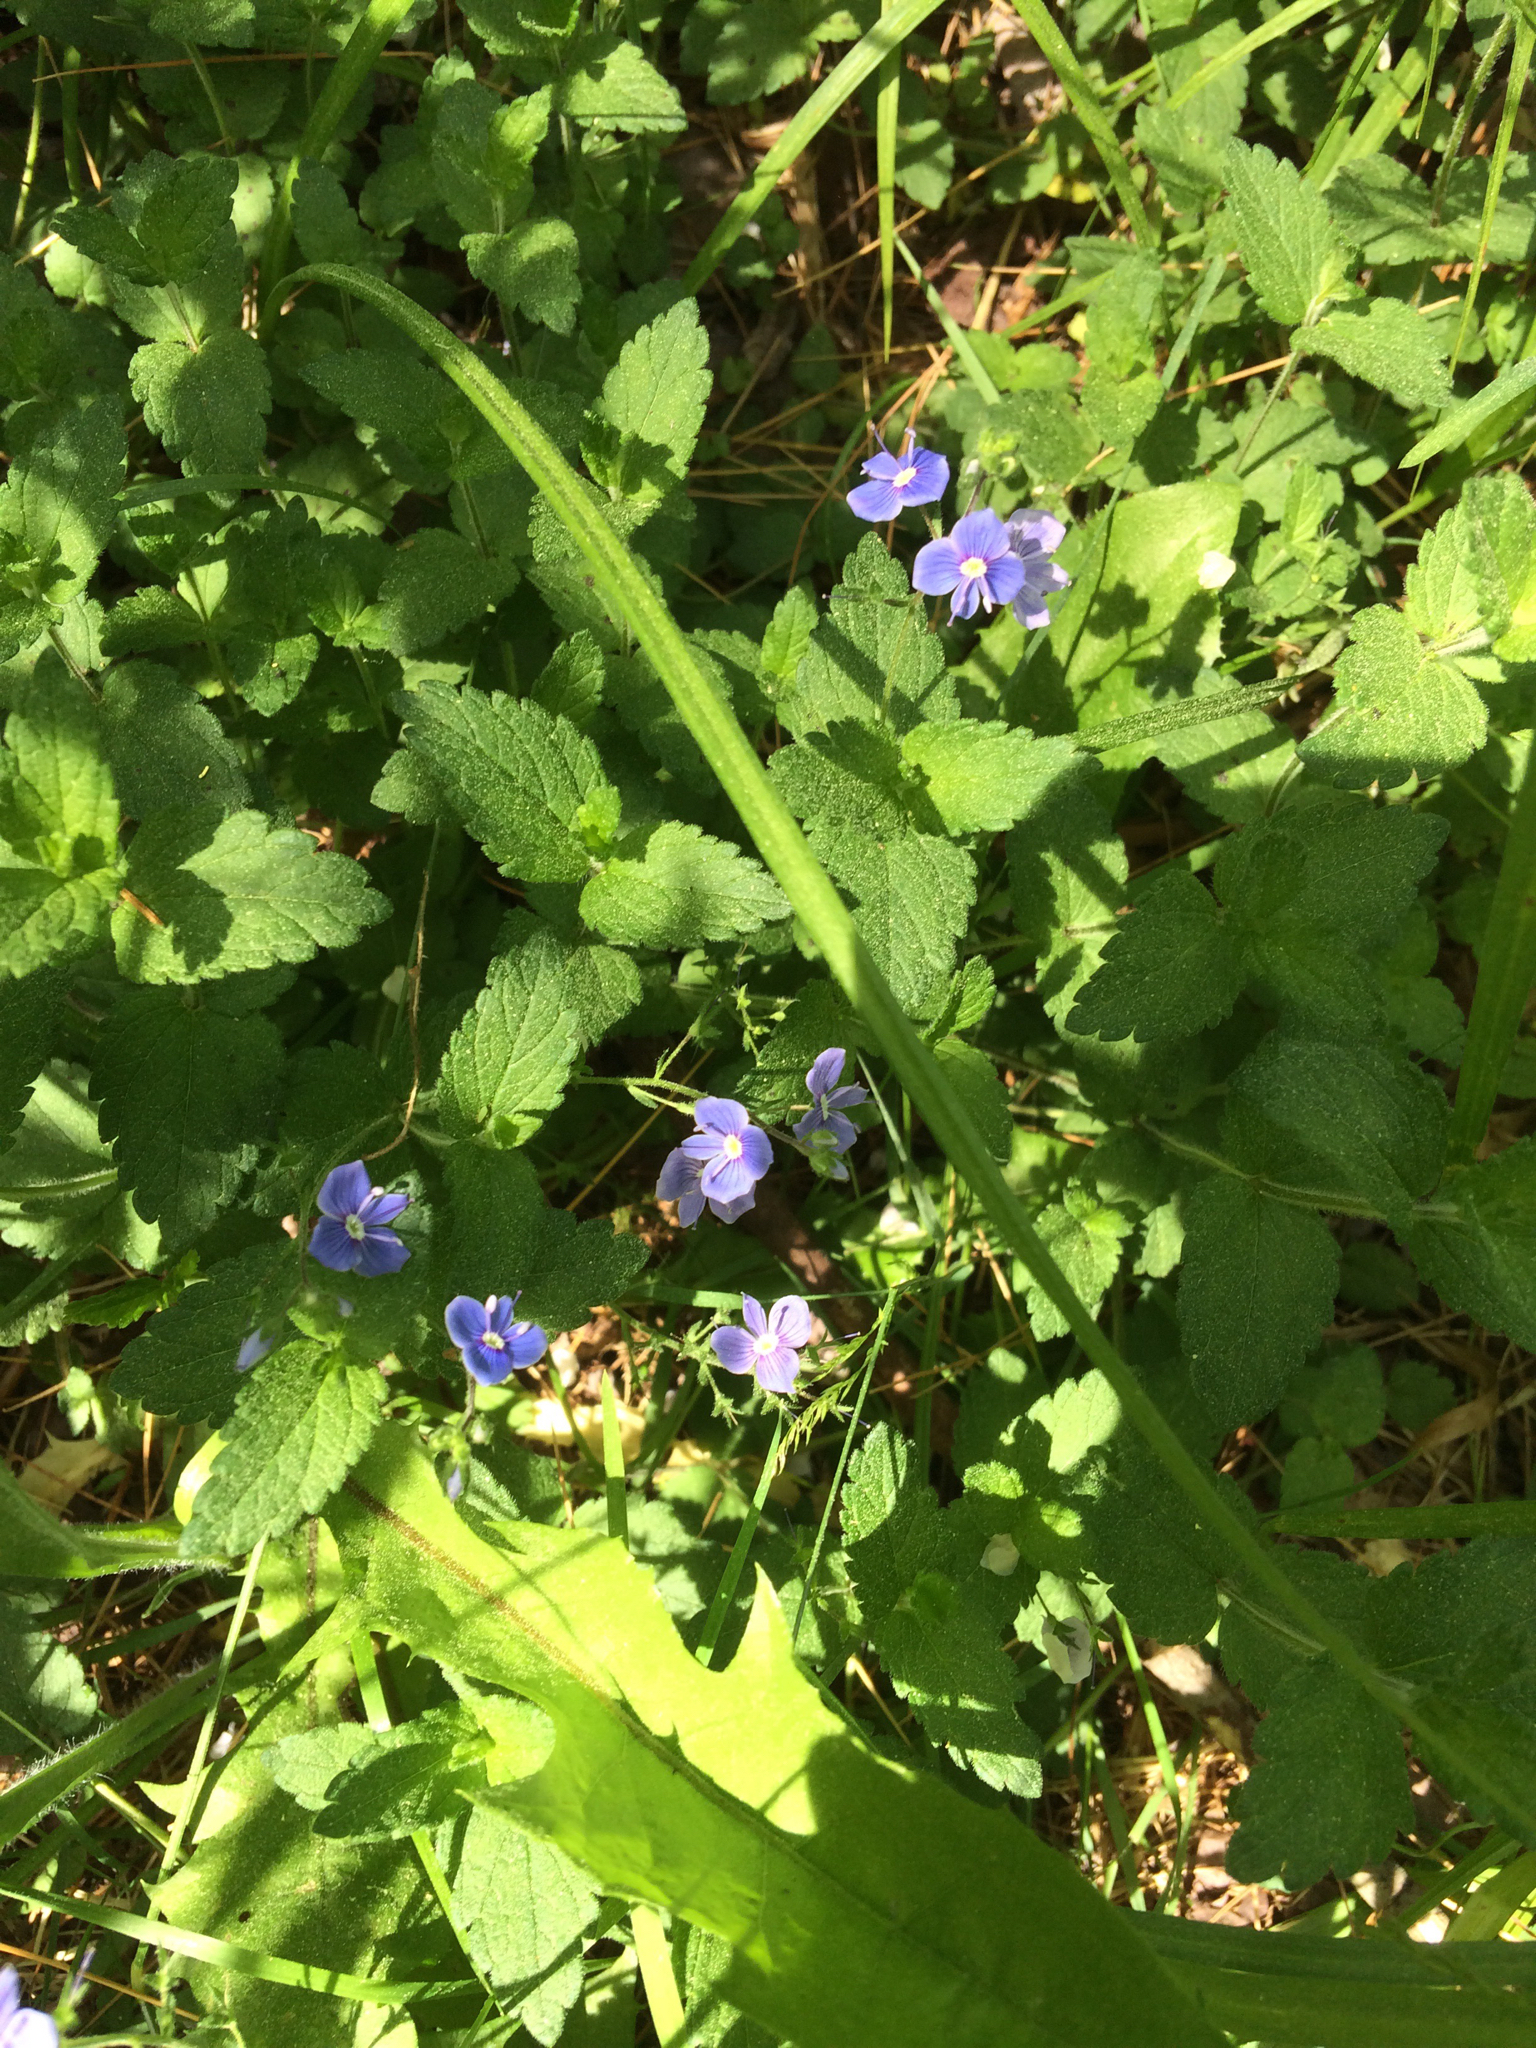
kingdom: Plantae
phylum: Tracheophyta
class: Magnoliopsida
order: Lamiales
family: Plantaginaceae
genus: Veronica
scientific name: Veronica chamaedrys
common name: Germander speedwell
